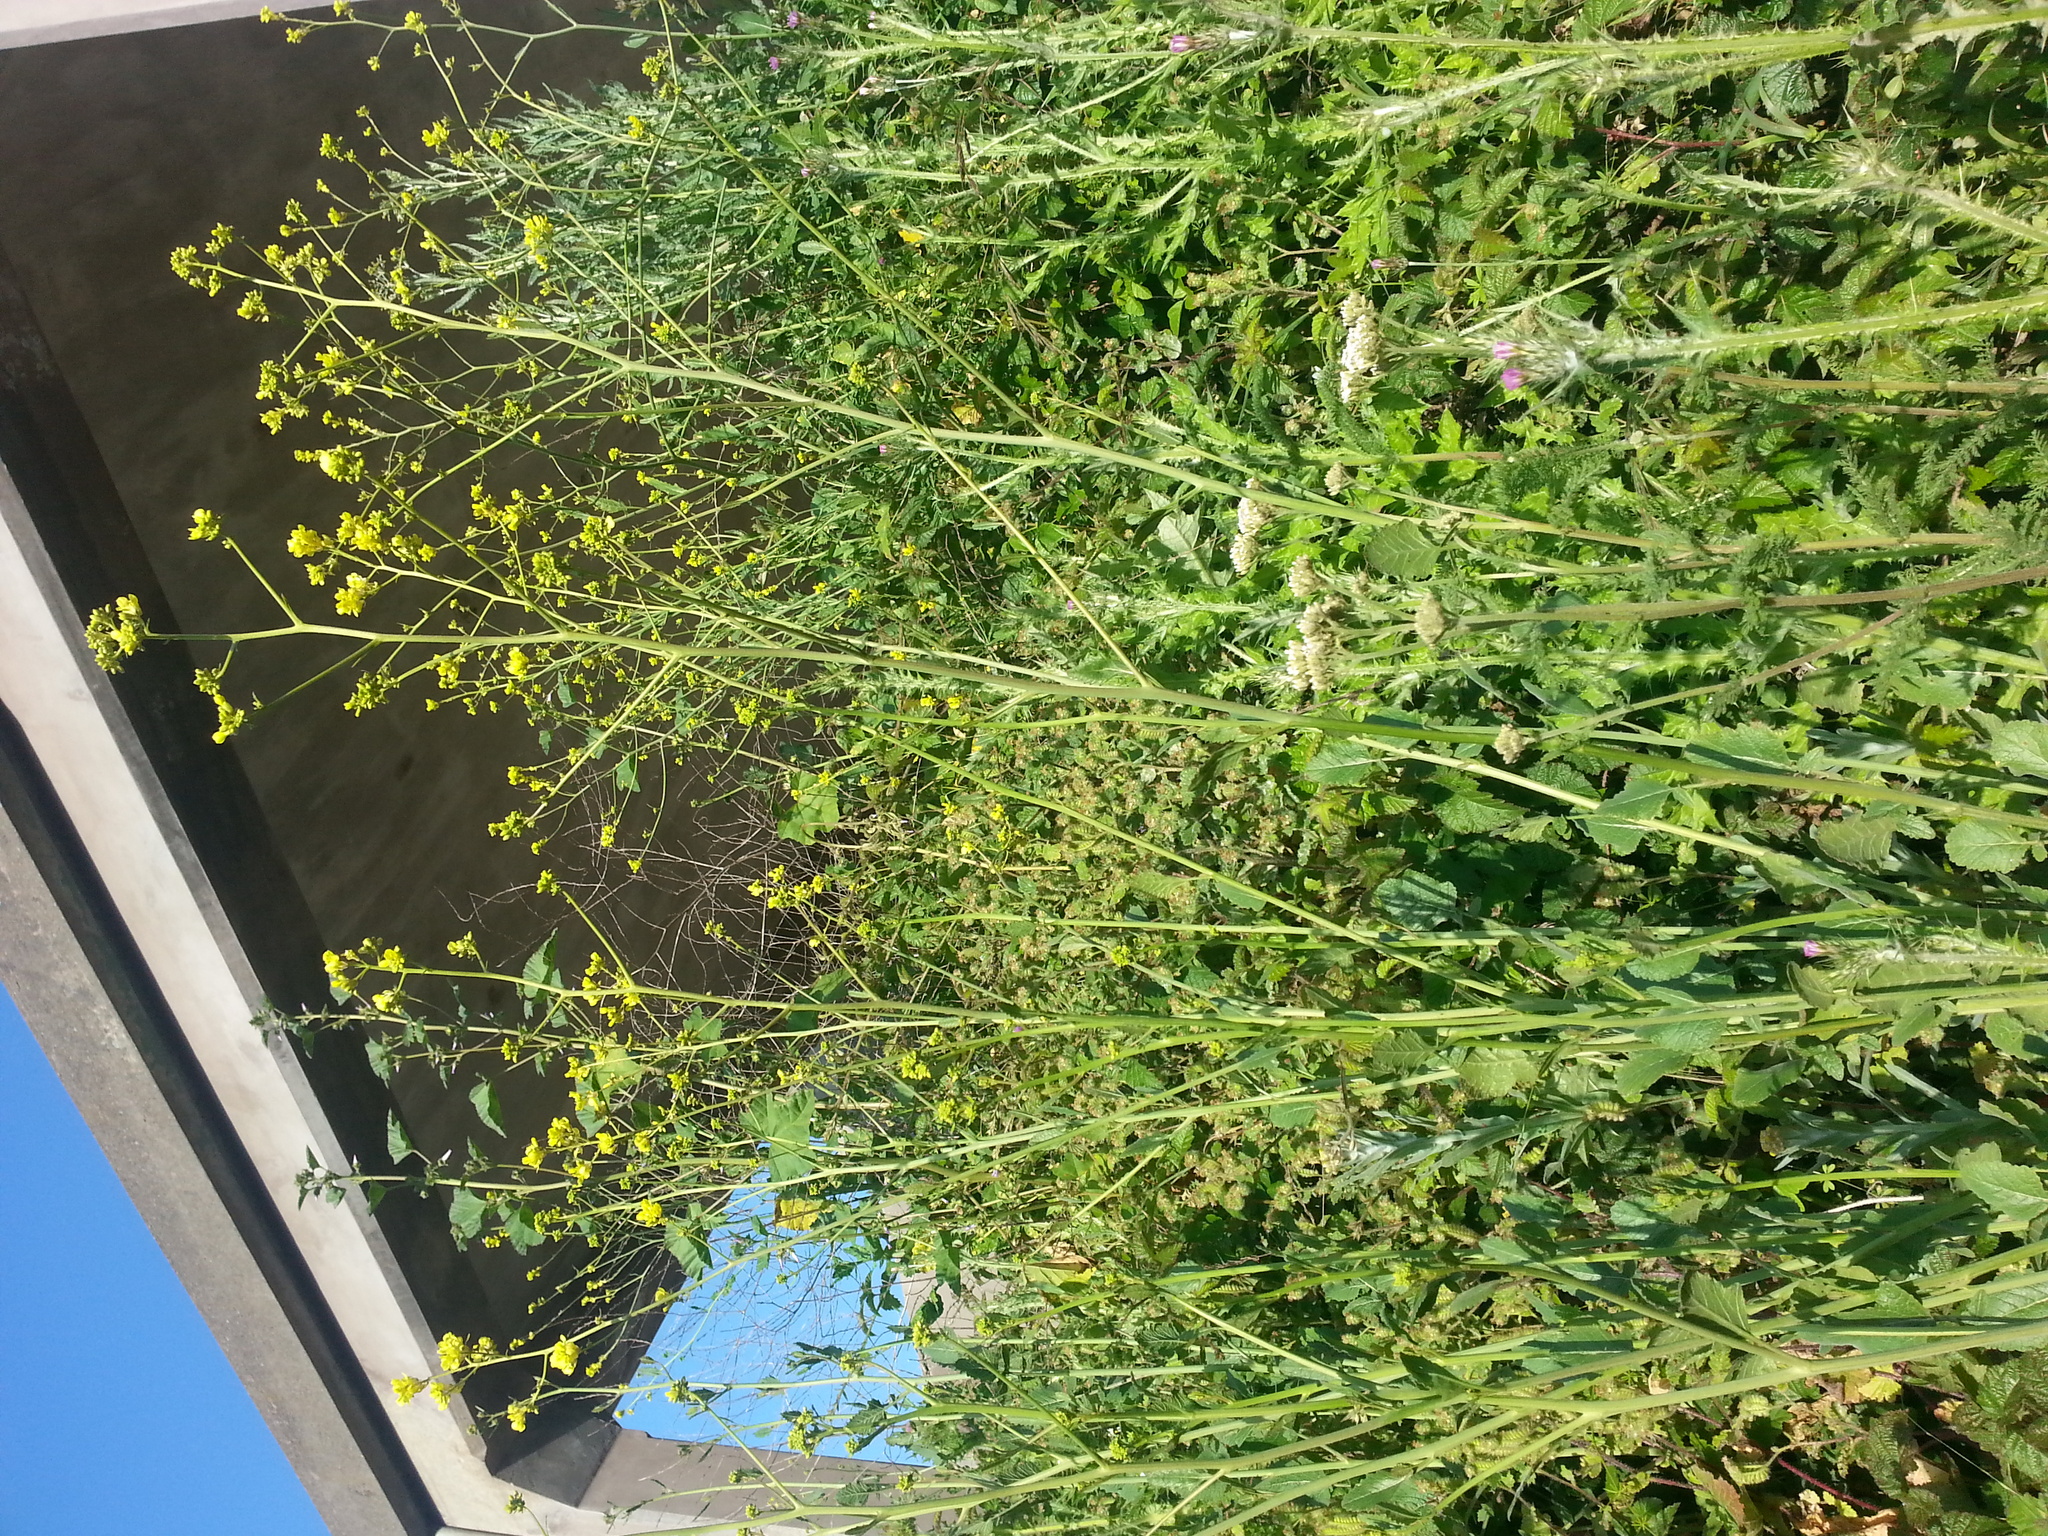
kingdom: Plantae
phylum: Tracheophyta
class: Magnoliopsida
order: Brassicales
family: Brassicaceae
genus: Brassica
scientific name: Brassica nigra
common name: Black mustard
